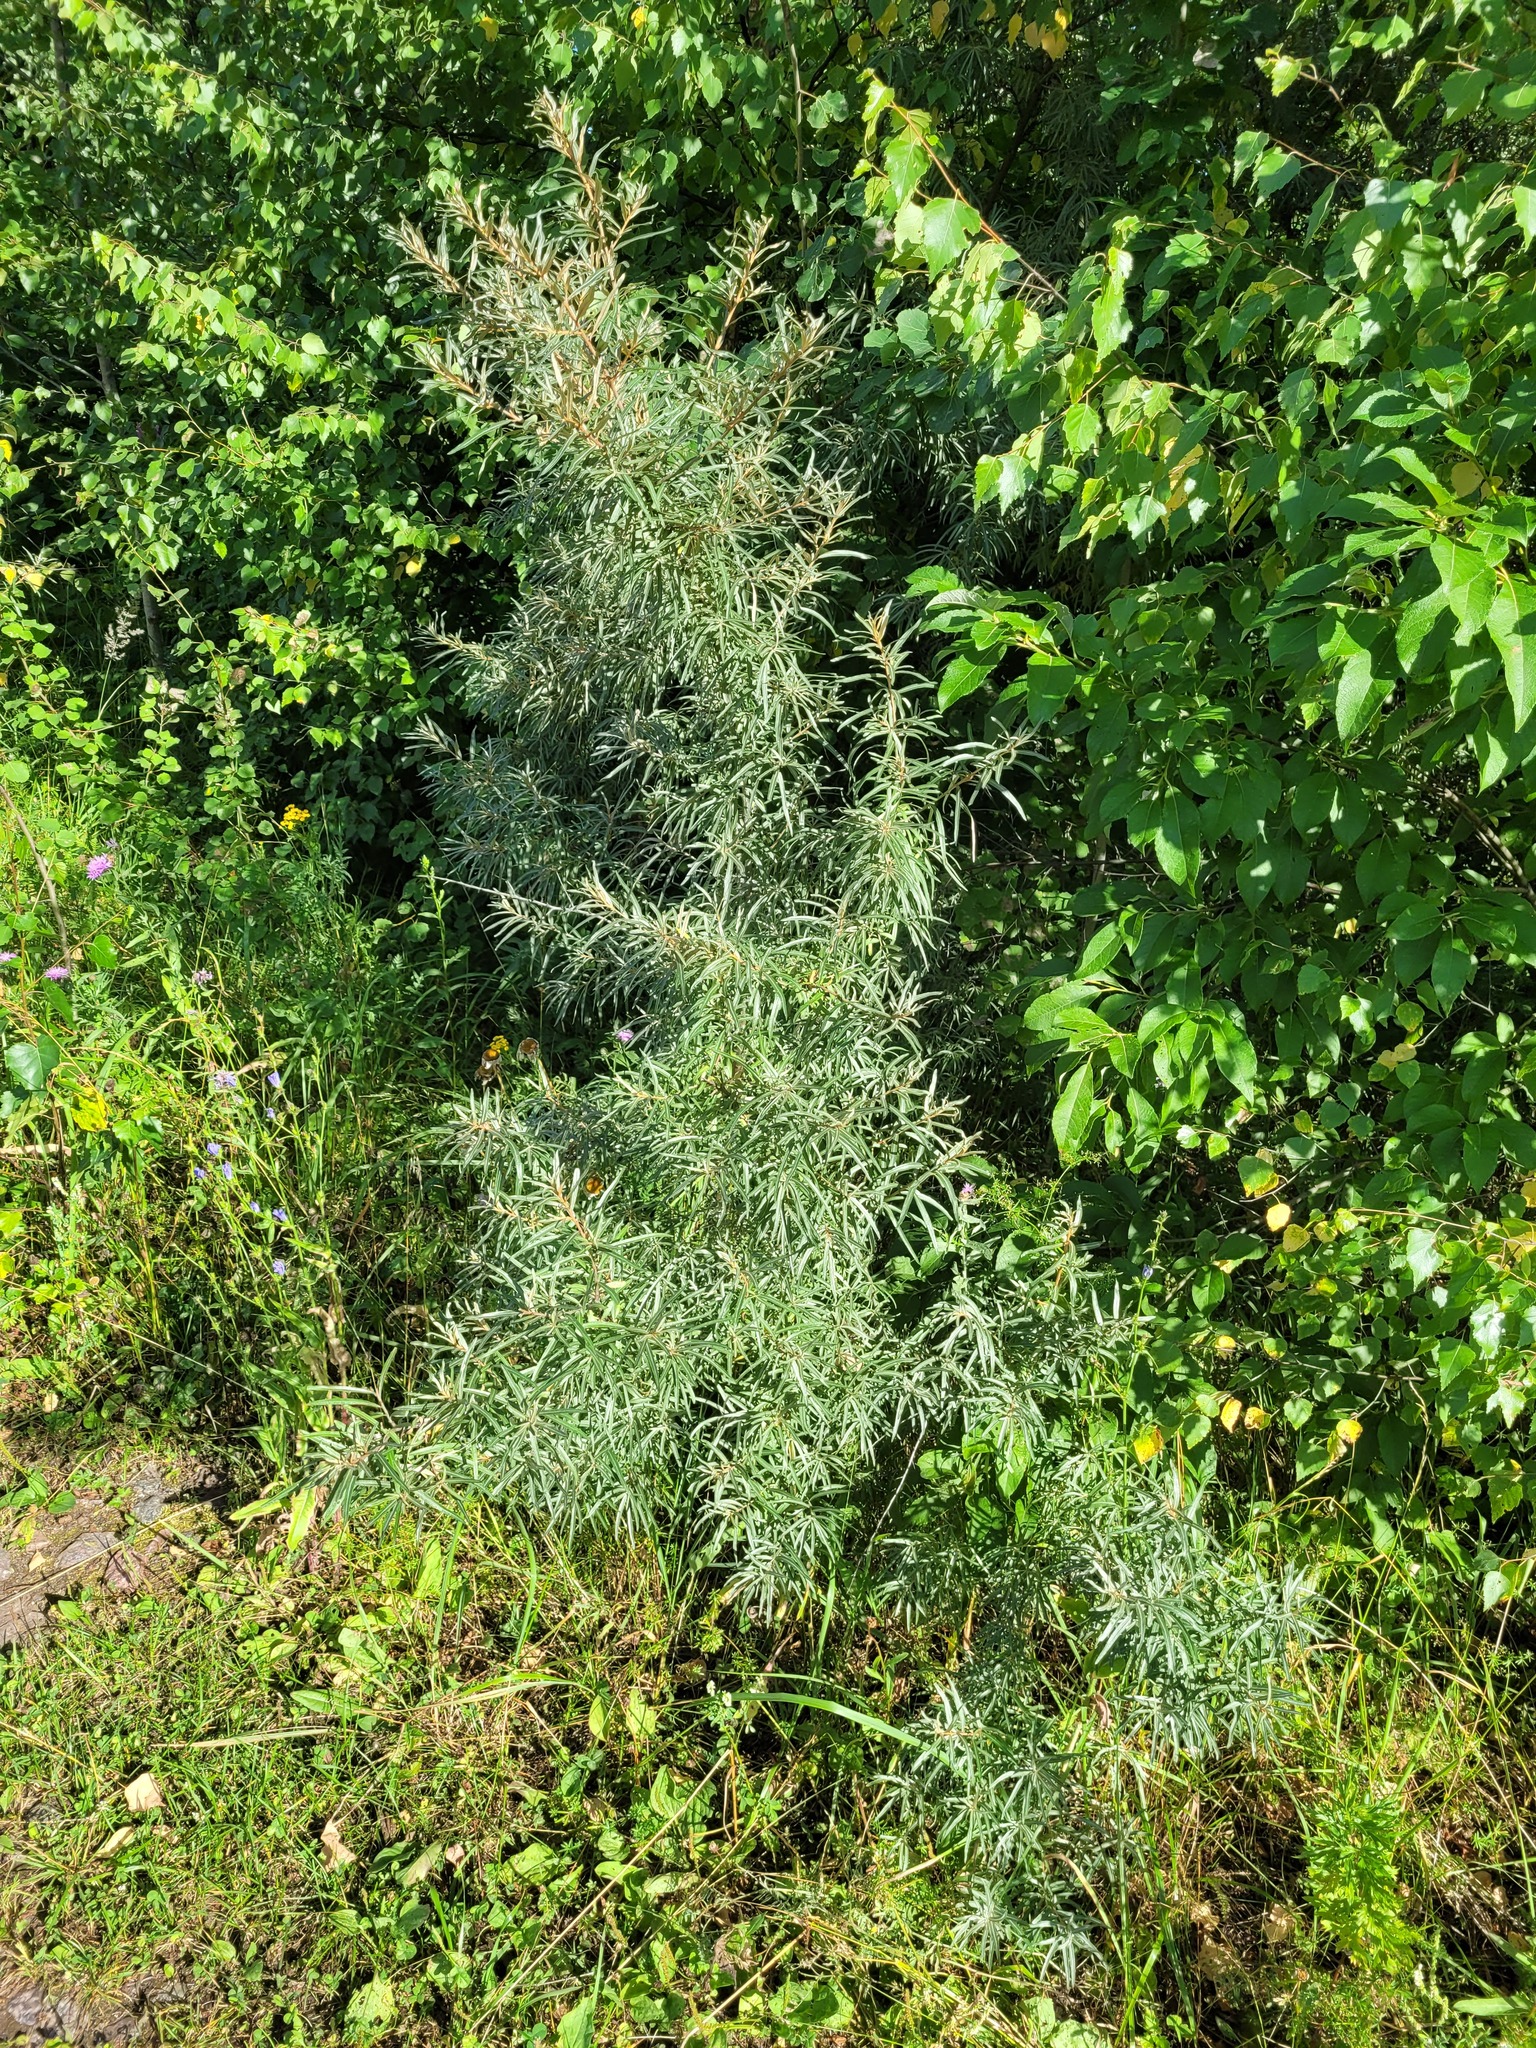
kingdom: Plantae
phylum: Tracheophyta
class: Magnoliopsida
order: Rosales
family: Elaeagnaceae
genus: Hippophae
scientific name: Hippophae rhamnoides
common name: Sea-buckthorn
